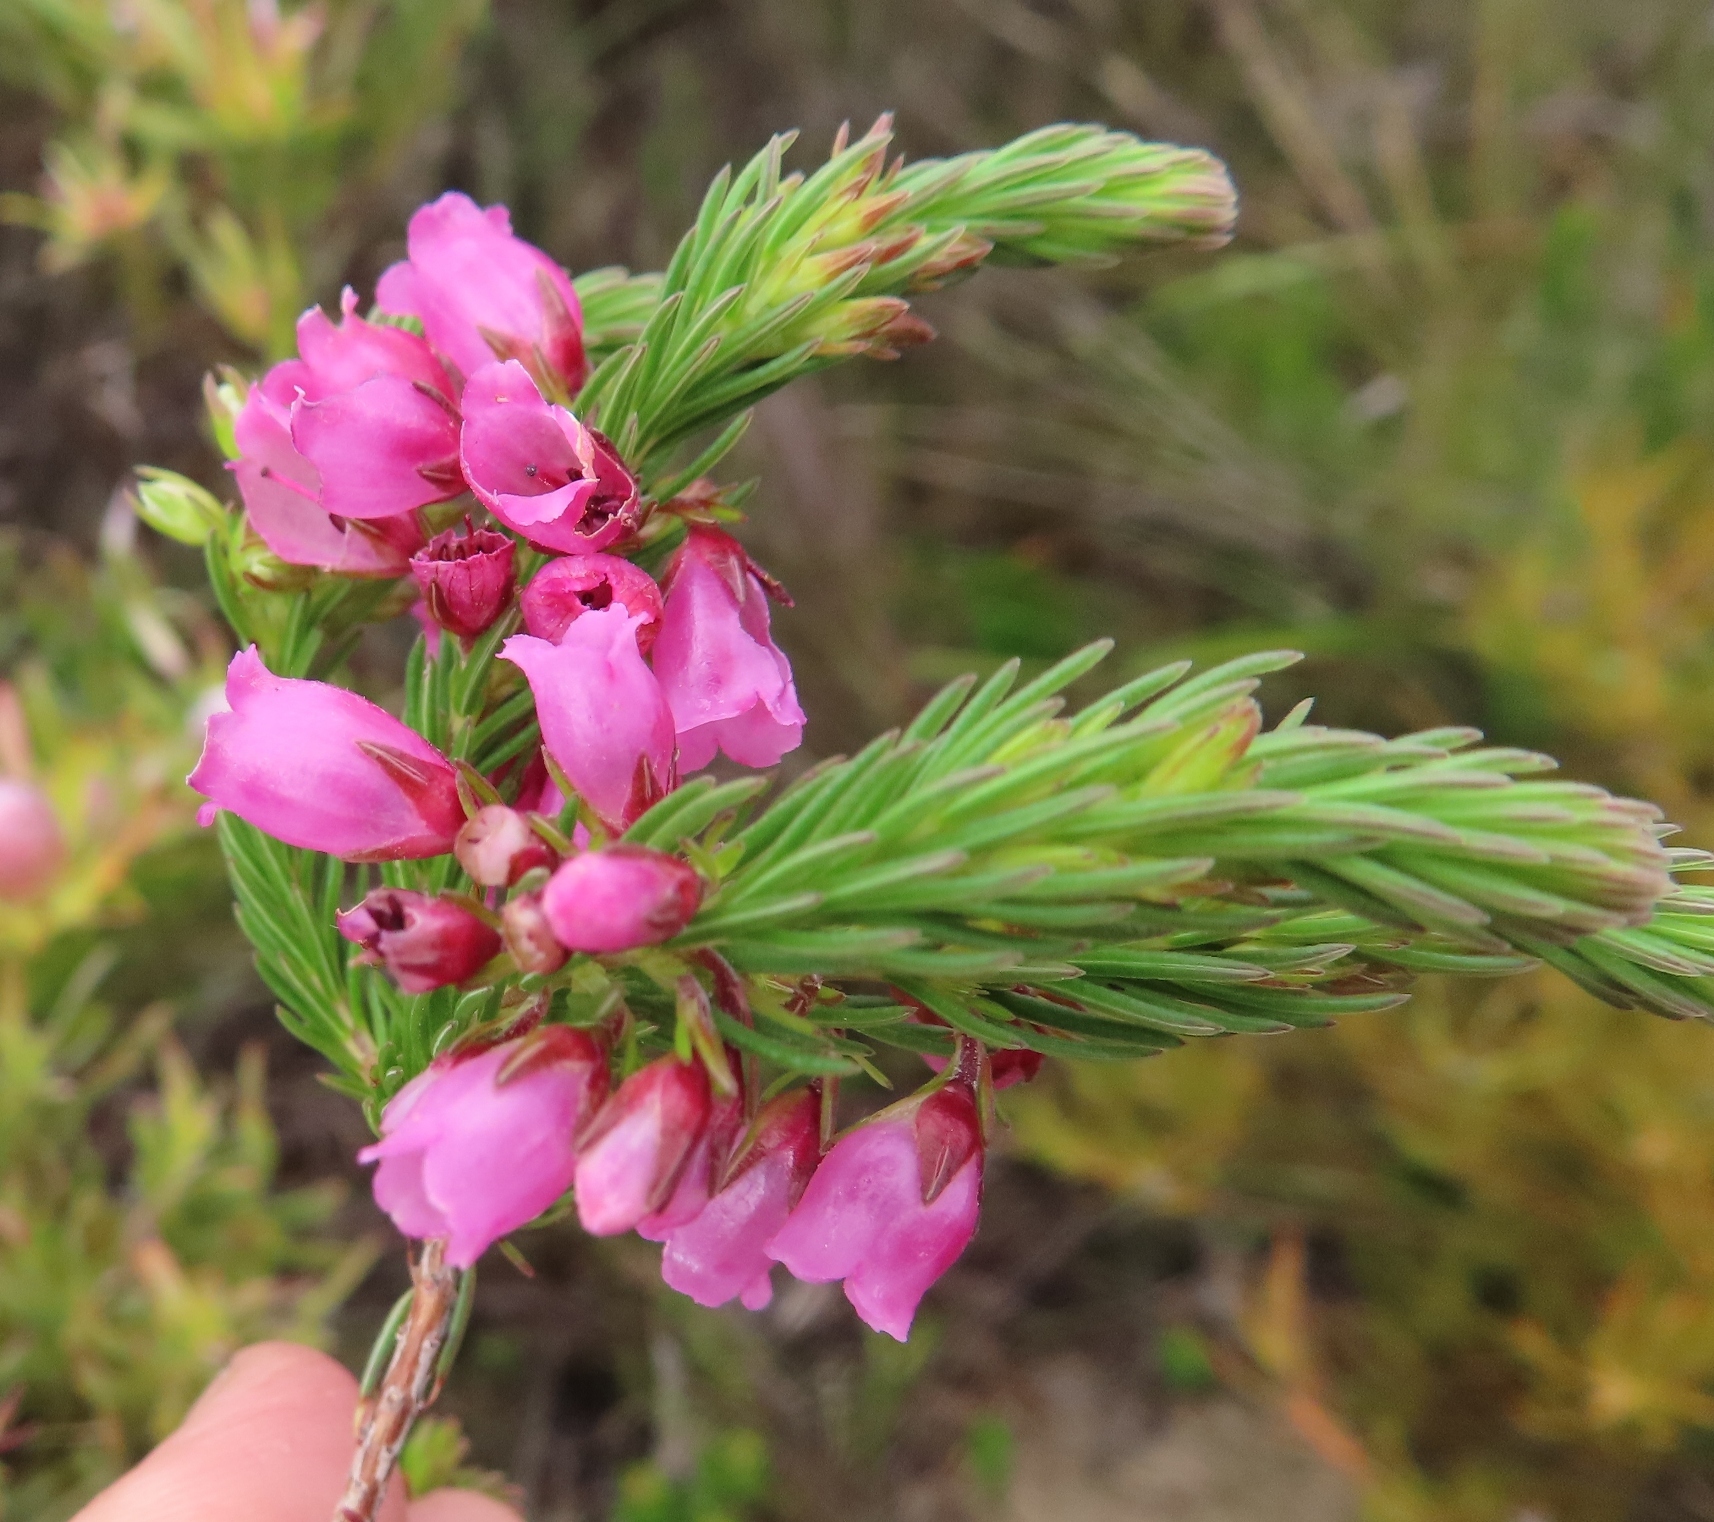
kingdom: Plantae
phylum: Tracheophyta
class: Magnoliopsida
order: Ericales
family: Ericaceae
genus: Erica
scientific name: Erica axilliflora
